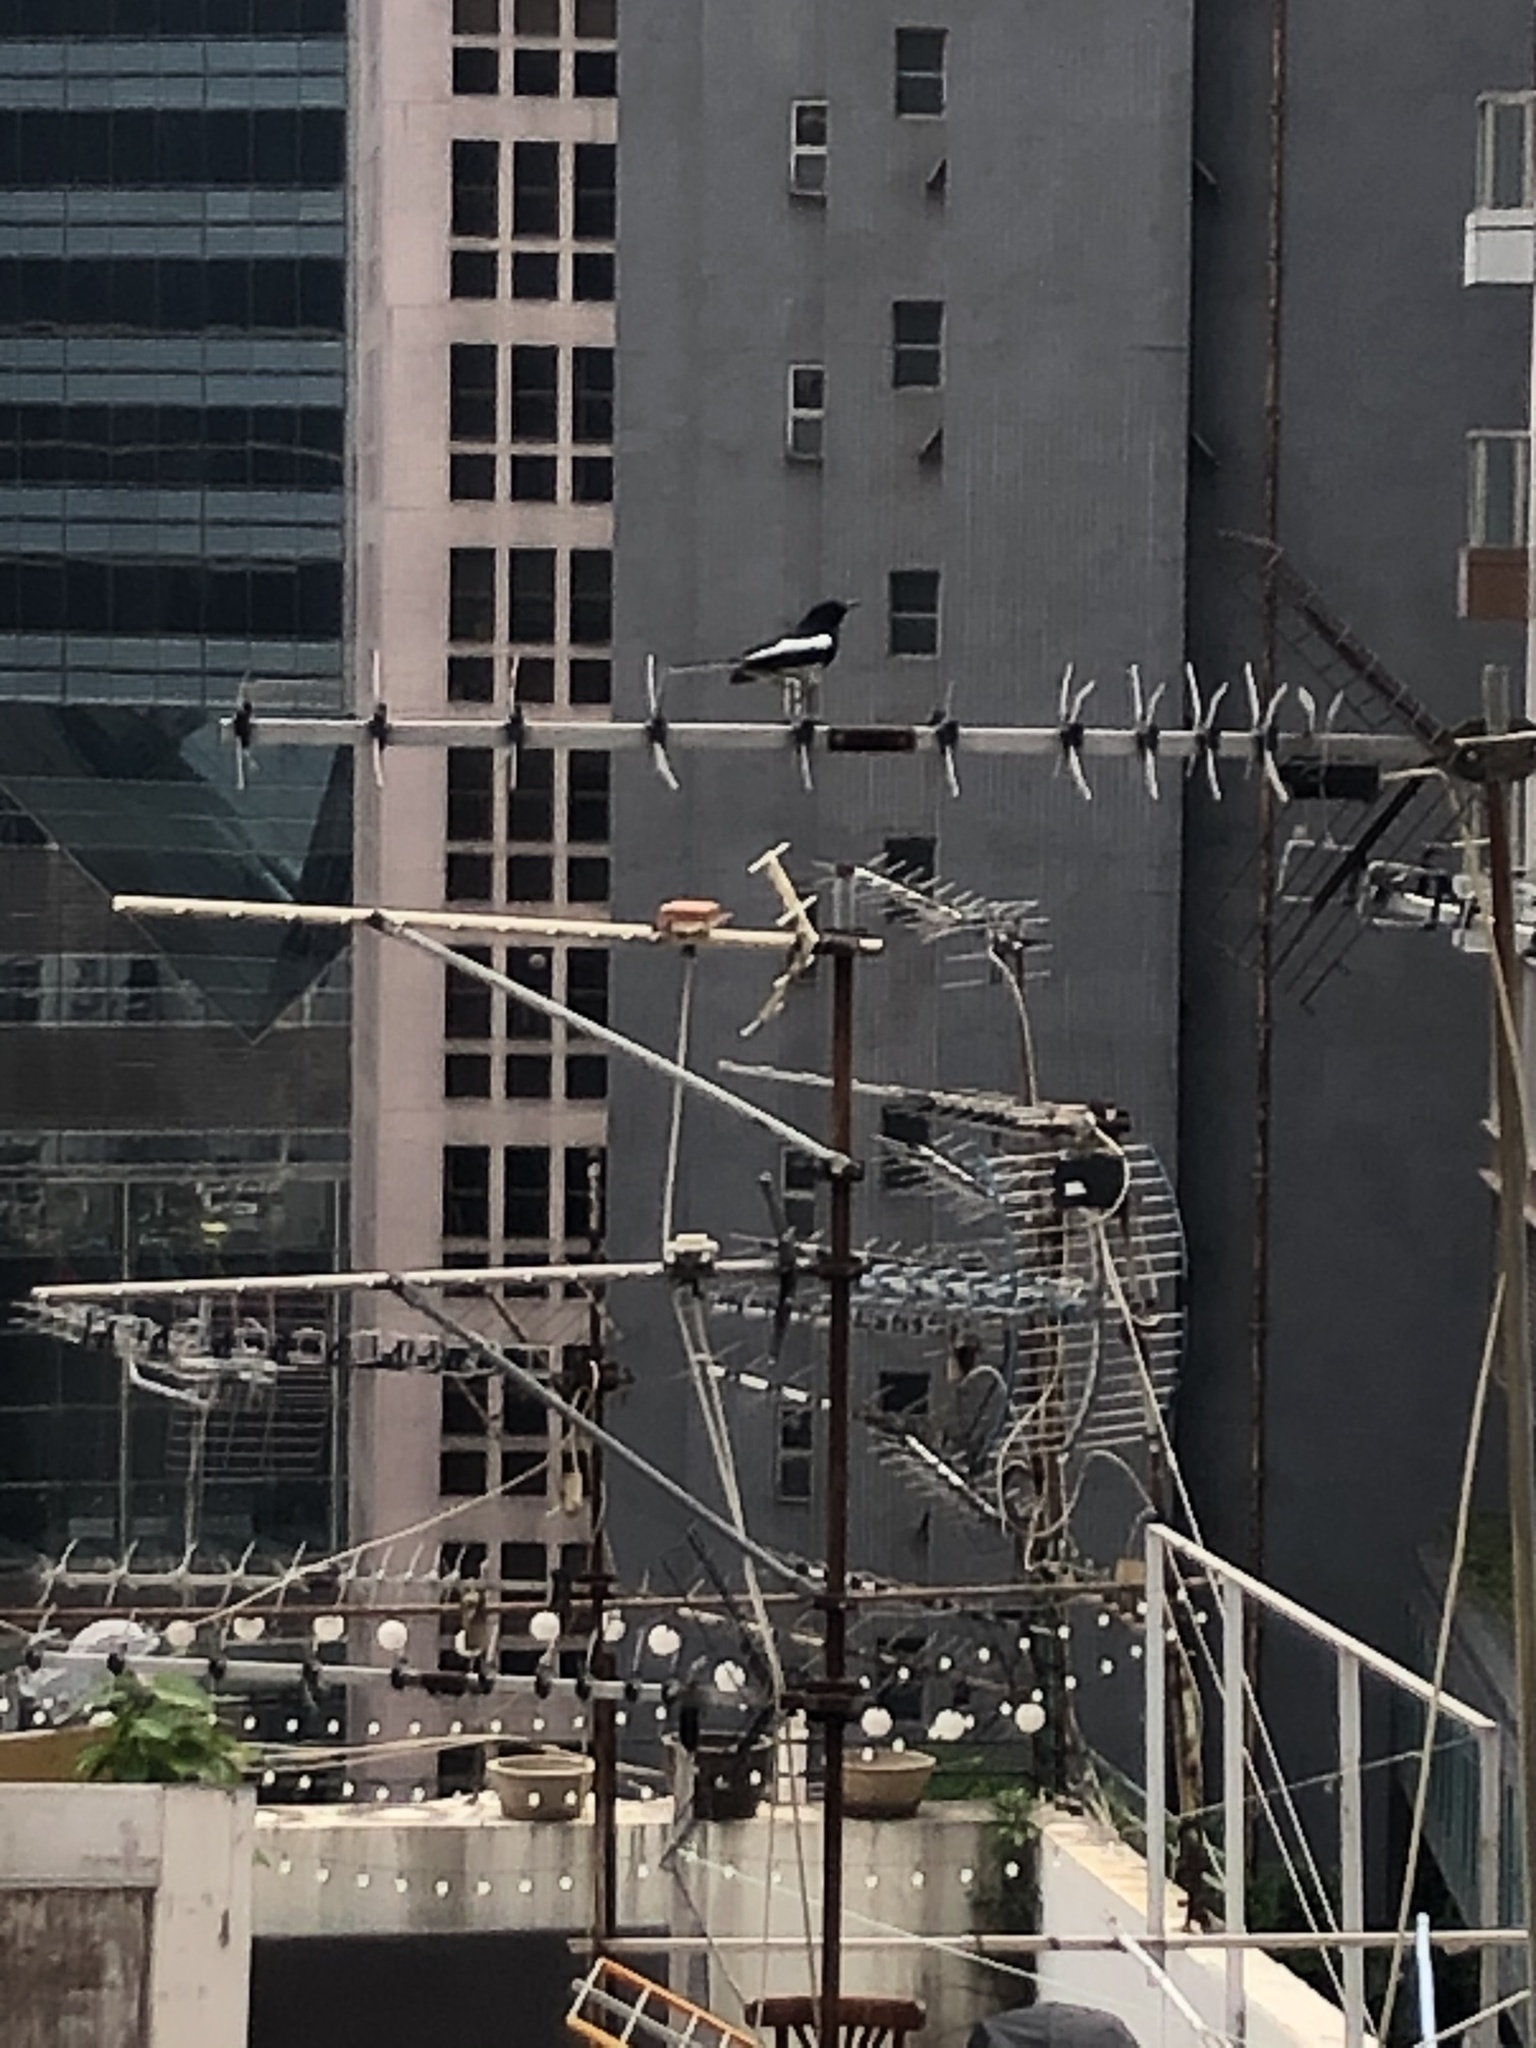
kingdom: Animalia
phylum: Chordata
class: Aves
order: Passeriformes
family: Muscicapidae
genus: Copsychus
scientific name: Copsychus saularis
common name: Oriental magpie-robin
